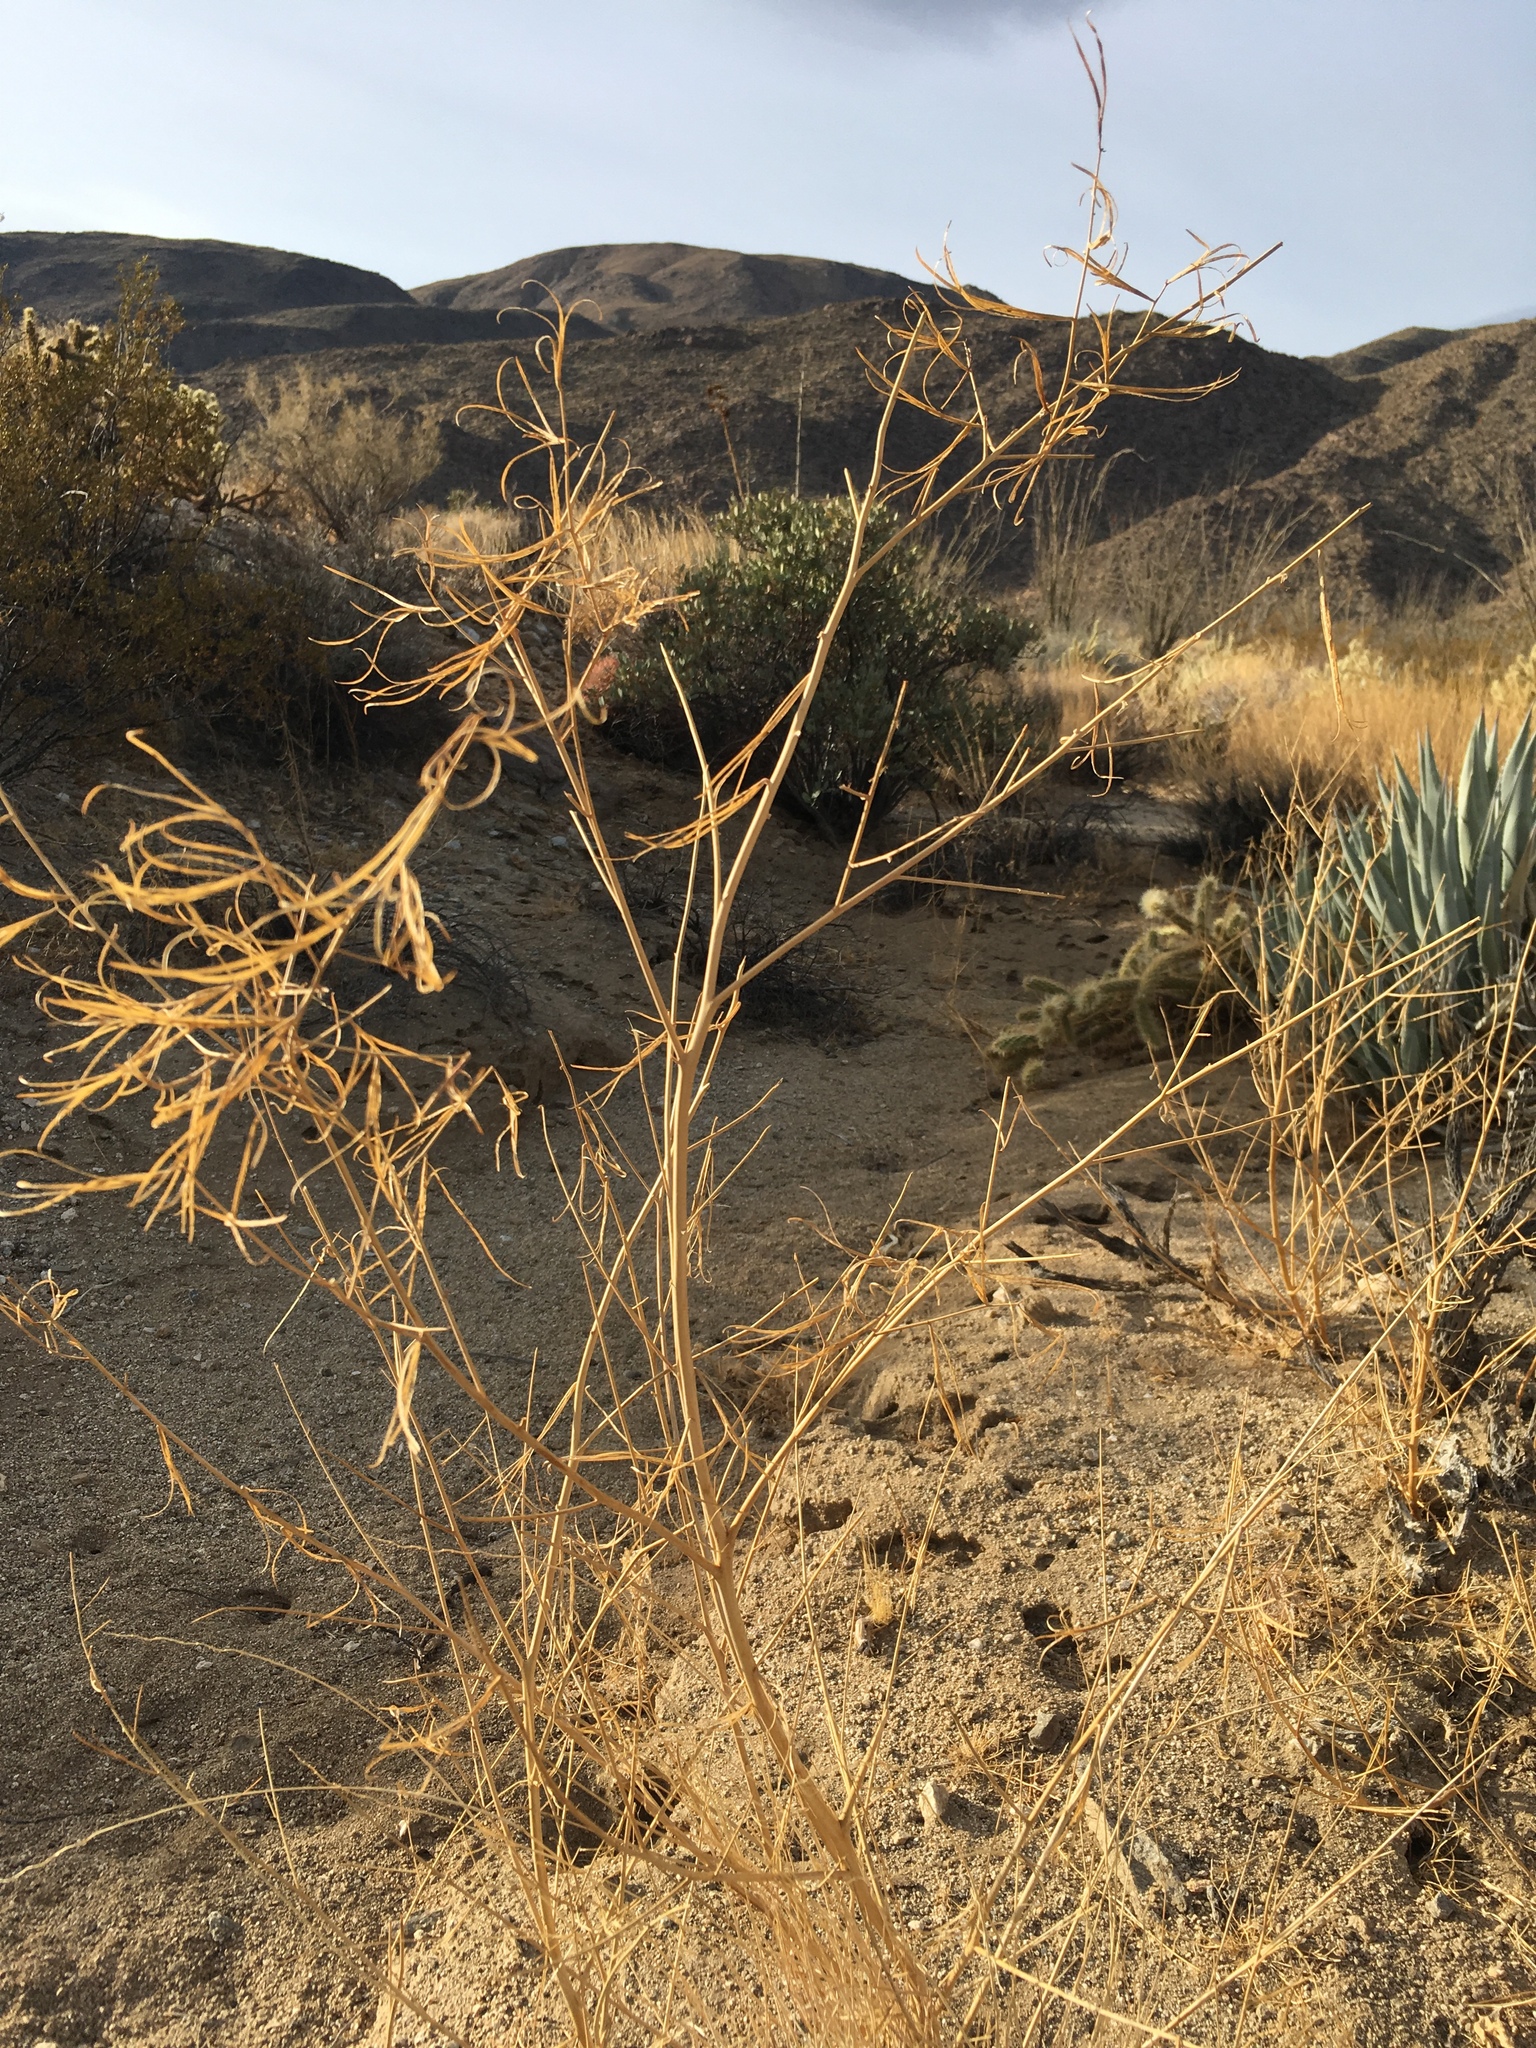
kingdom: Plantae
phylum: Tracheophyta
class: Magnoliopsida
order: Myrtales
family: Onagraceae
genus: Eulobus
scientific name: Eulobus californicus
